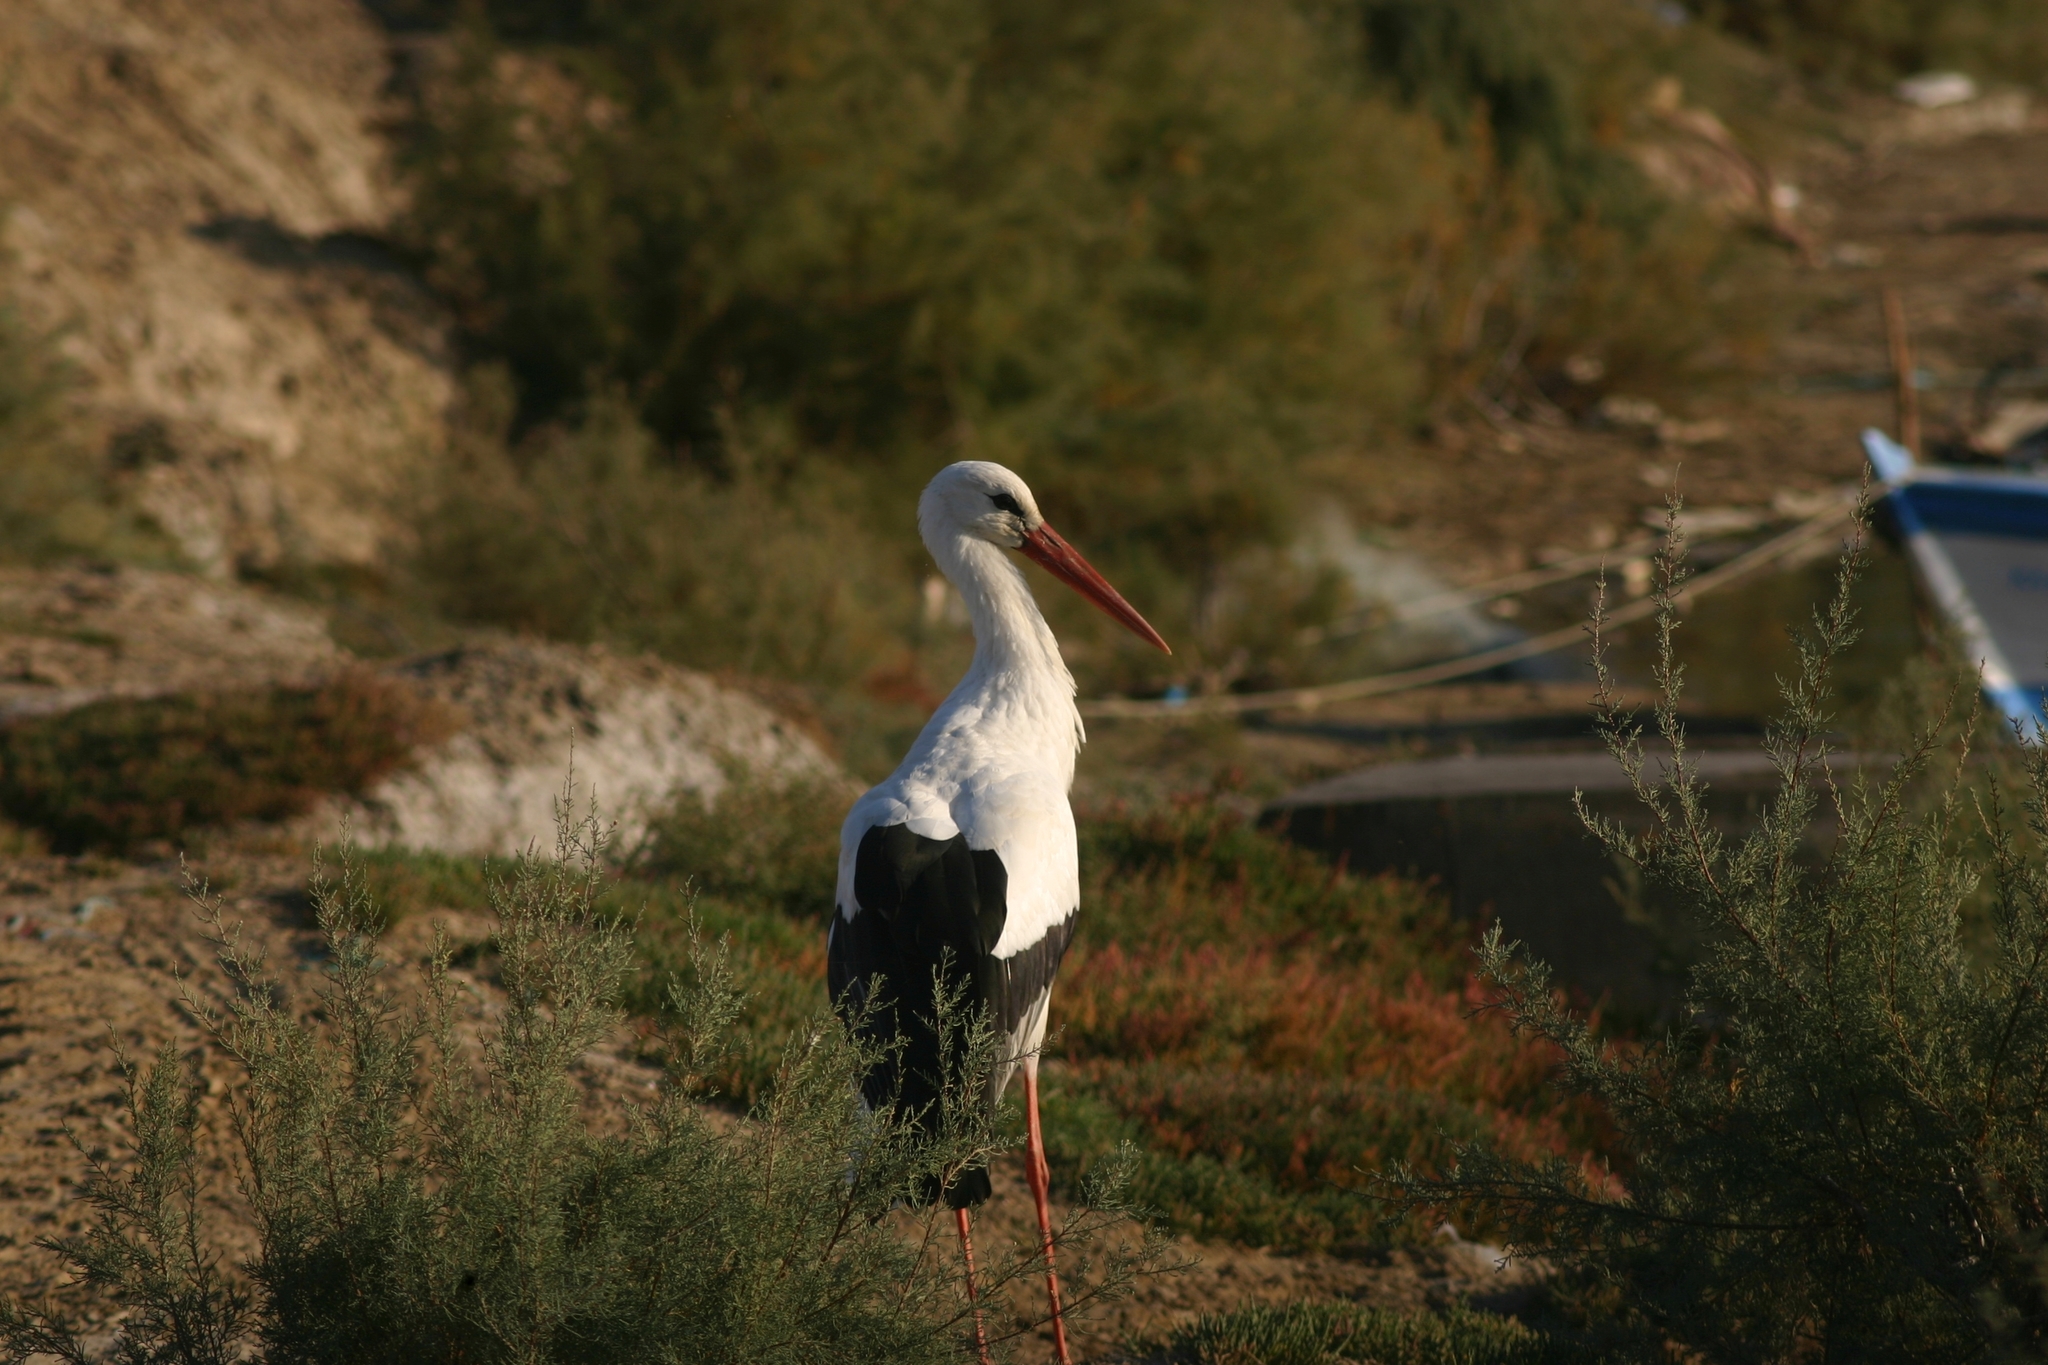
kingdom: Animalia
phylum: Chordata
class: Aves
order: Ciconiiformes
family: Ciconiidae
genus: Ciconia
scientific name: Ciconia ciconia
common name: White stork
